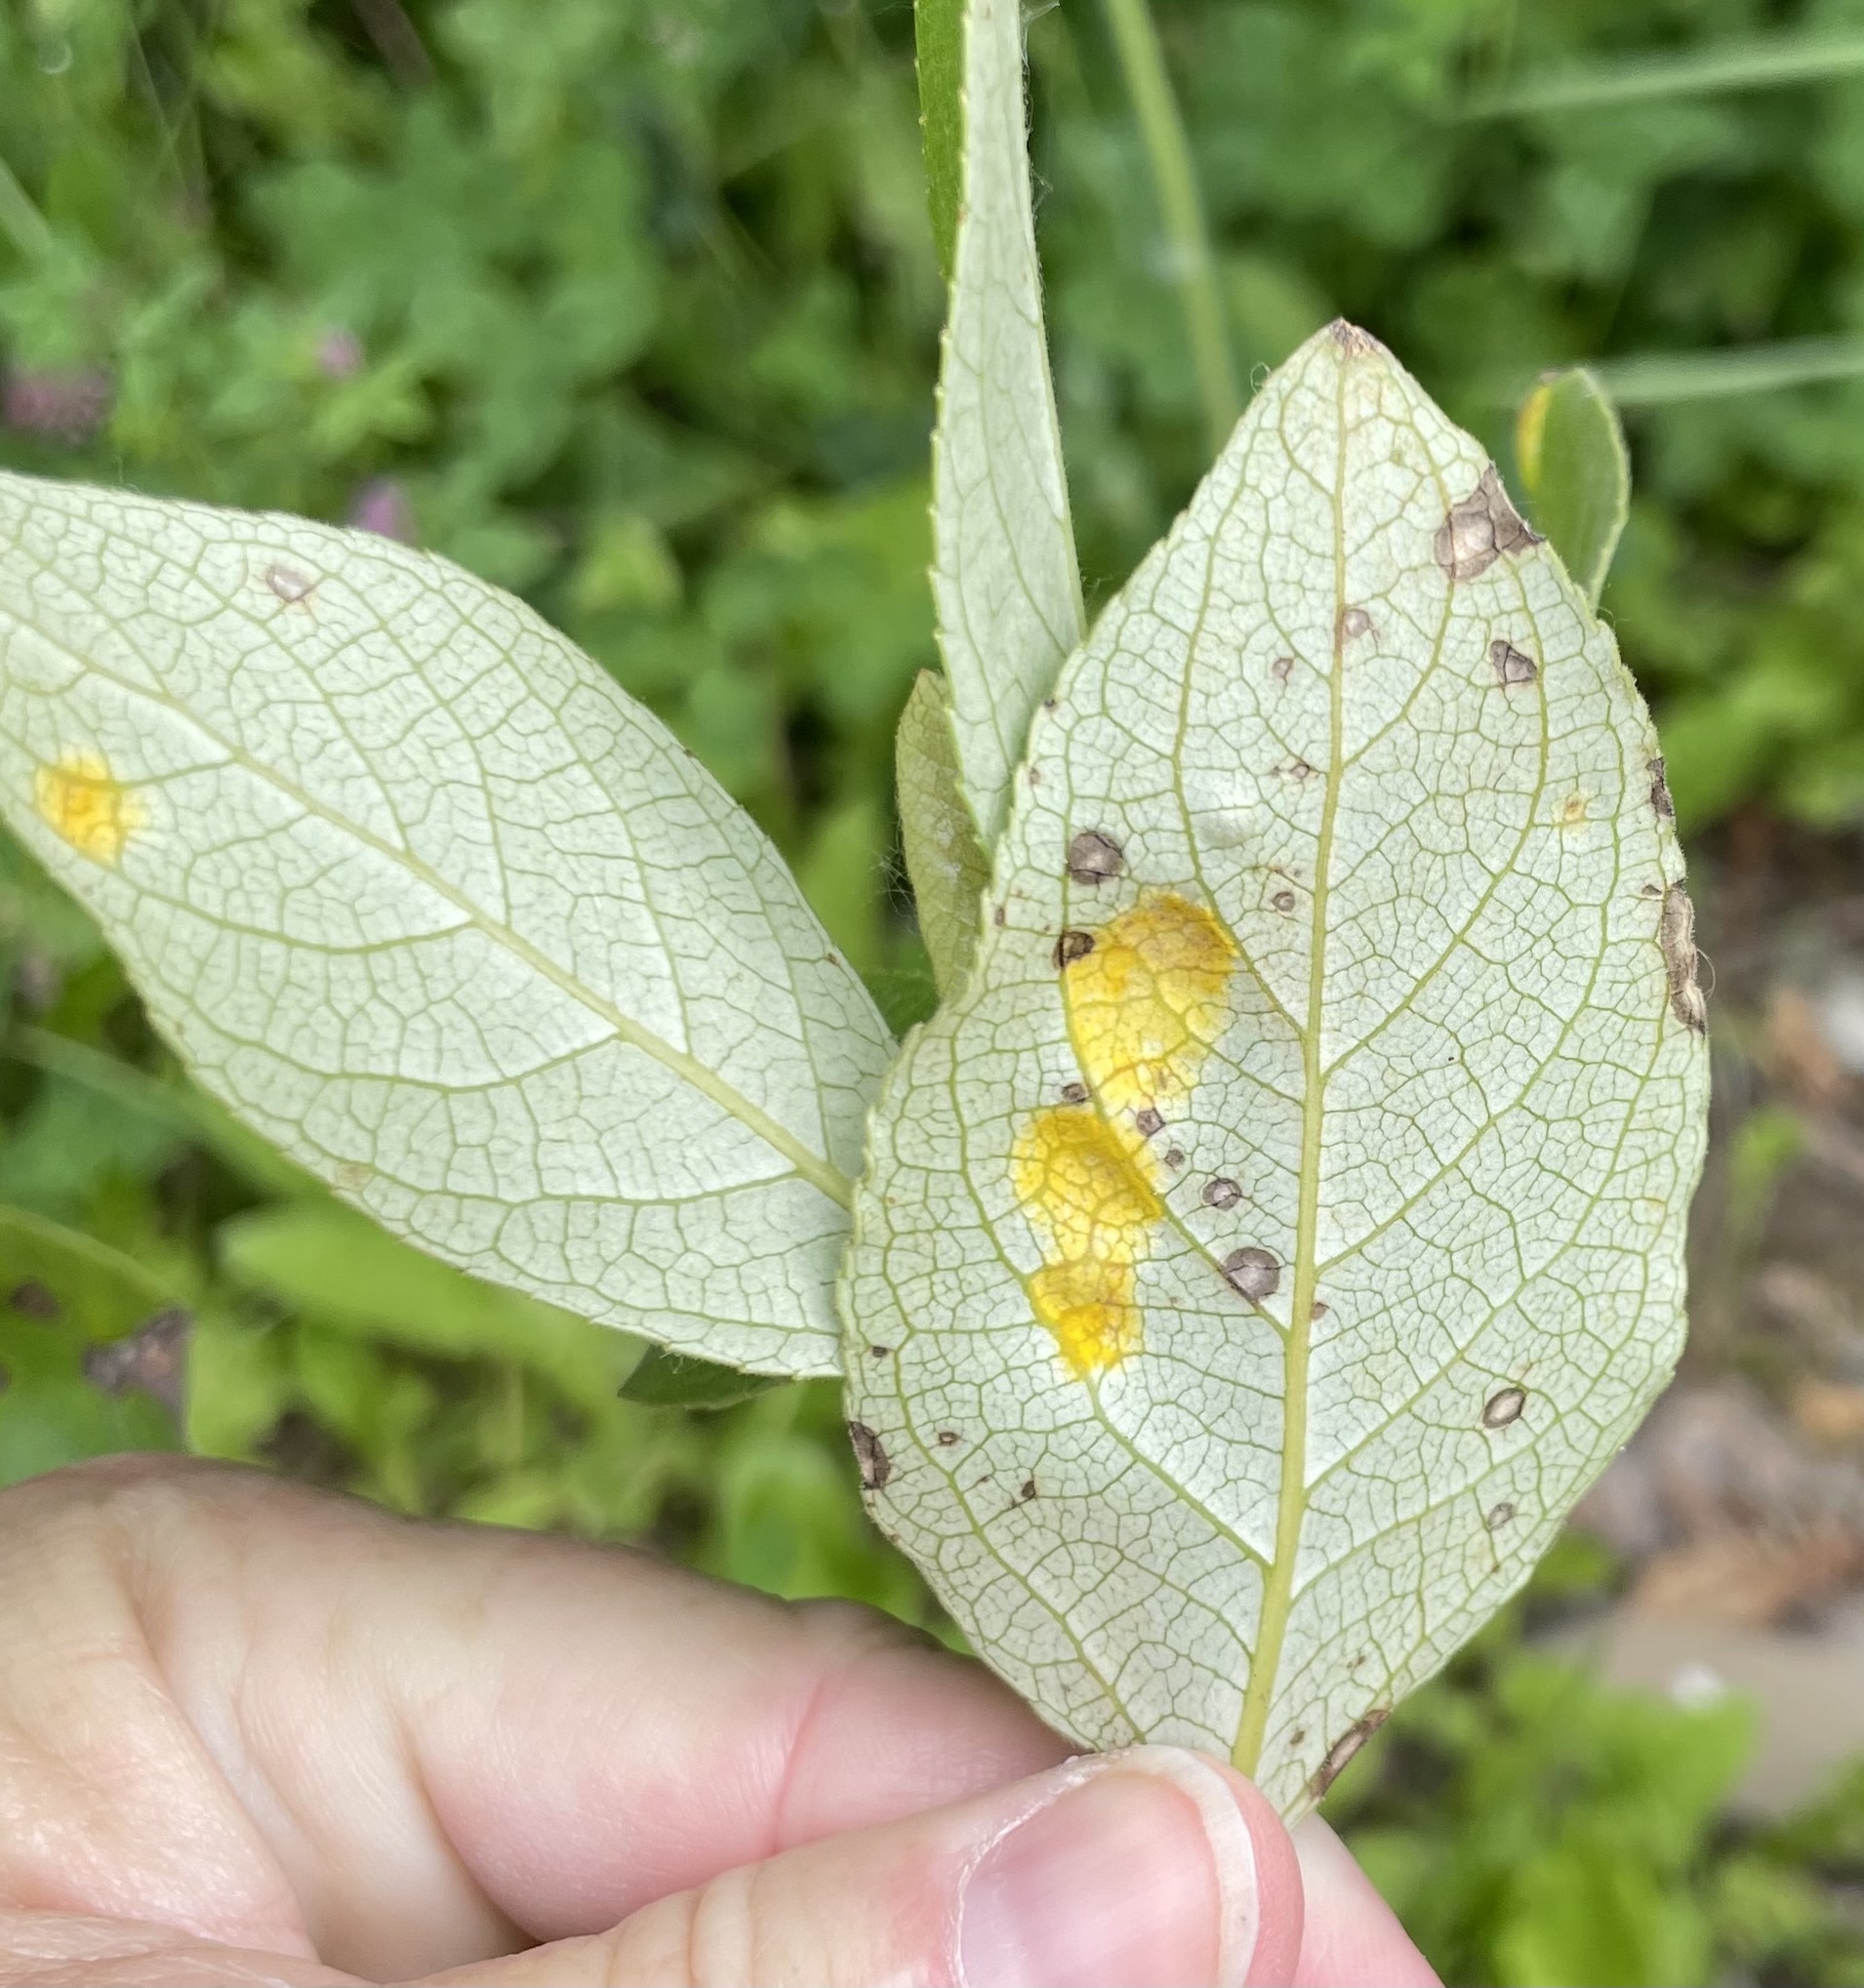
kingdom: Fungi
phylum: Ascomycota
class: Taphrinomycetes
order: Taphrinales
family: Taphrinaceae
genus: Taphrina
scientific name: Taphrina populi-salicis
